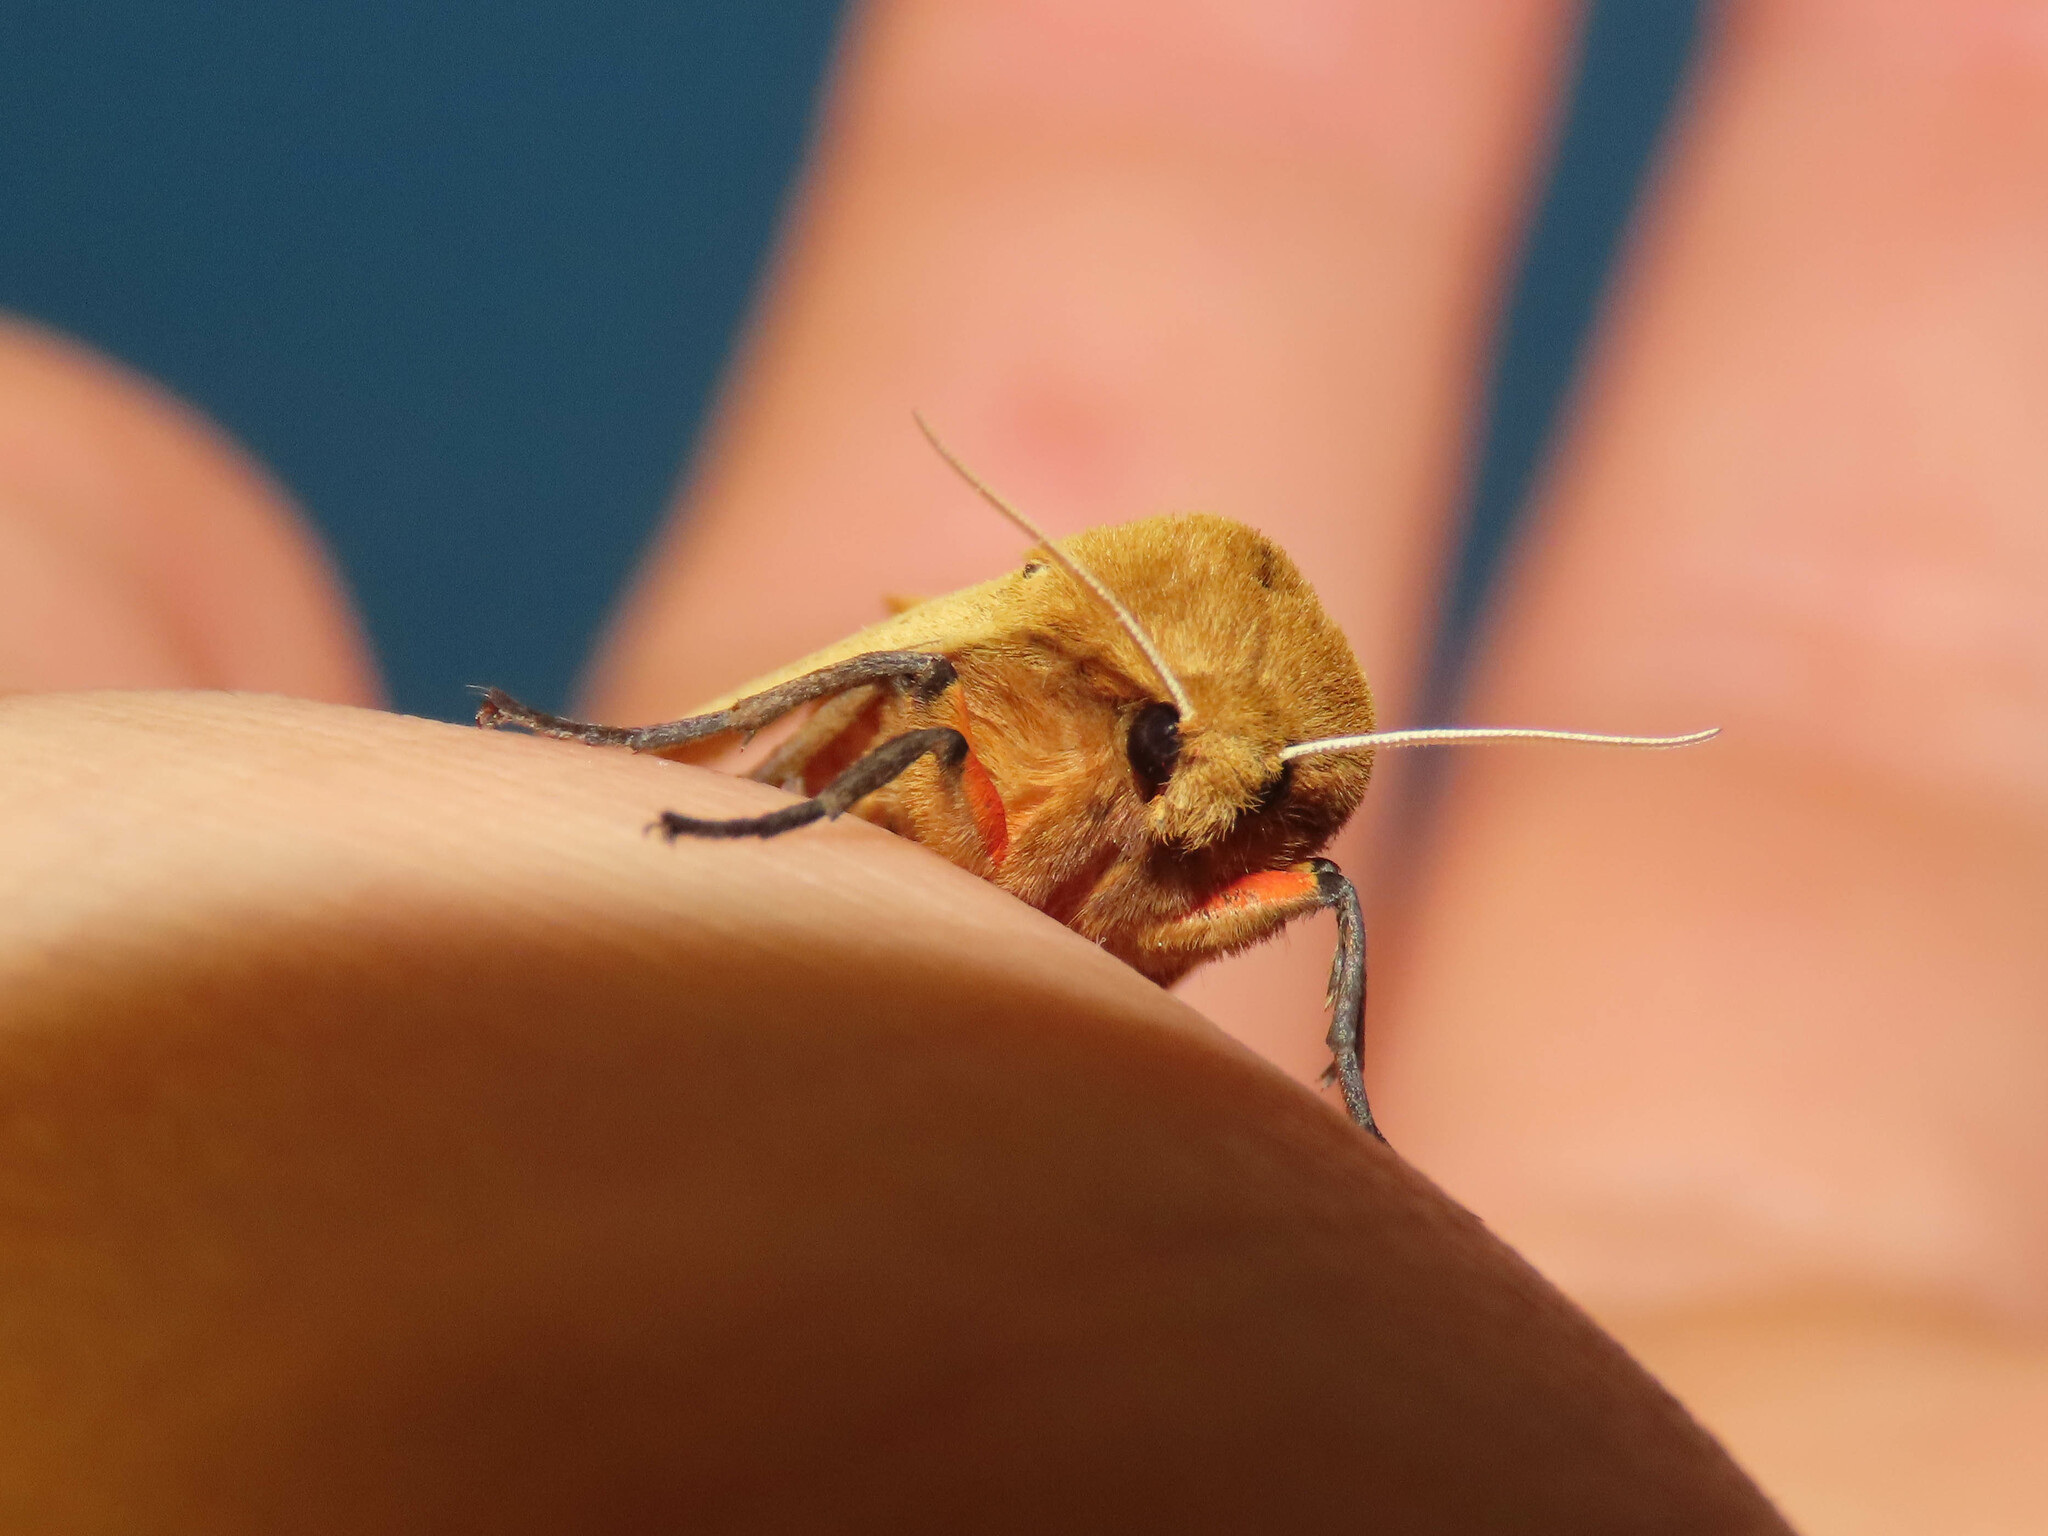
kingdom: Animalia
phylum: Arthropoda
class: Insecta
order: Lepidoptera
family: Erebidae
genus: Pyrrharctia
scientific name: Pyrrharctia isabella
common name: Isabella tiger moth
